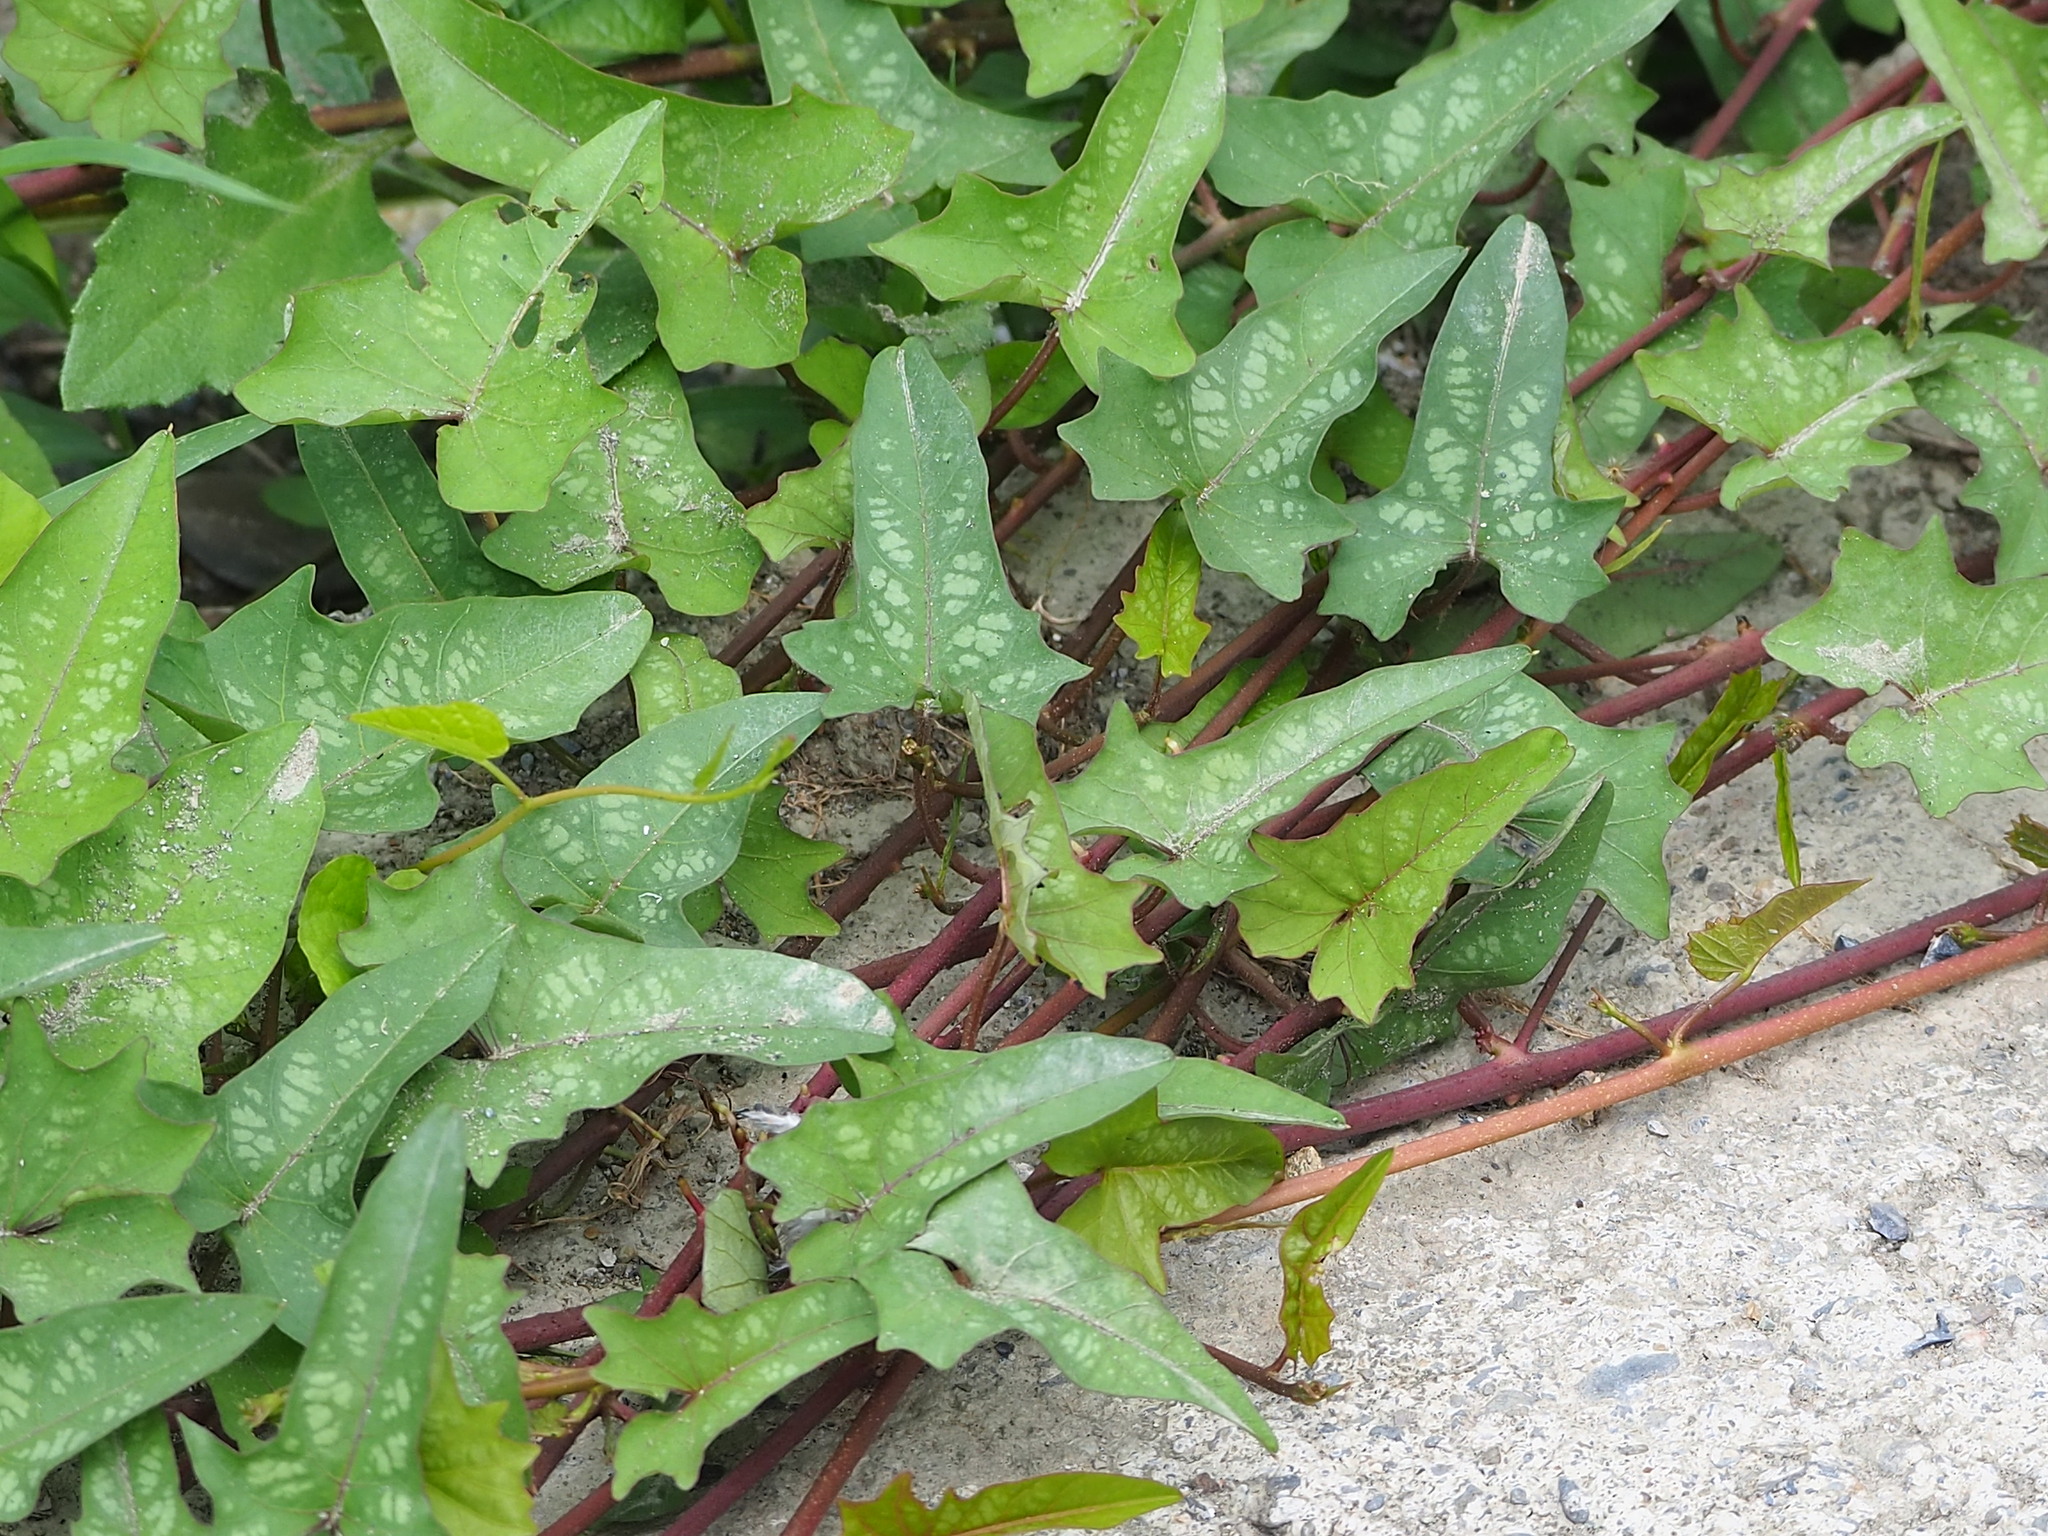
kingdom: Plantae
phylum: Tracheophyta
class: Magnoliopsida
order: Solanales
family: Convolvulaceae
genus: Merremia
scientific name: Merremia gemella
